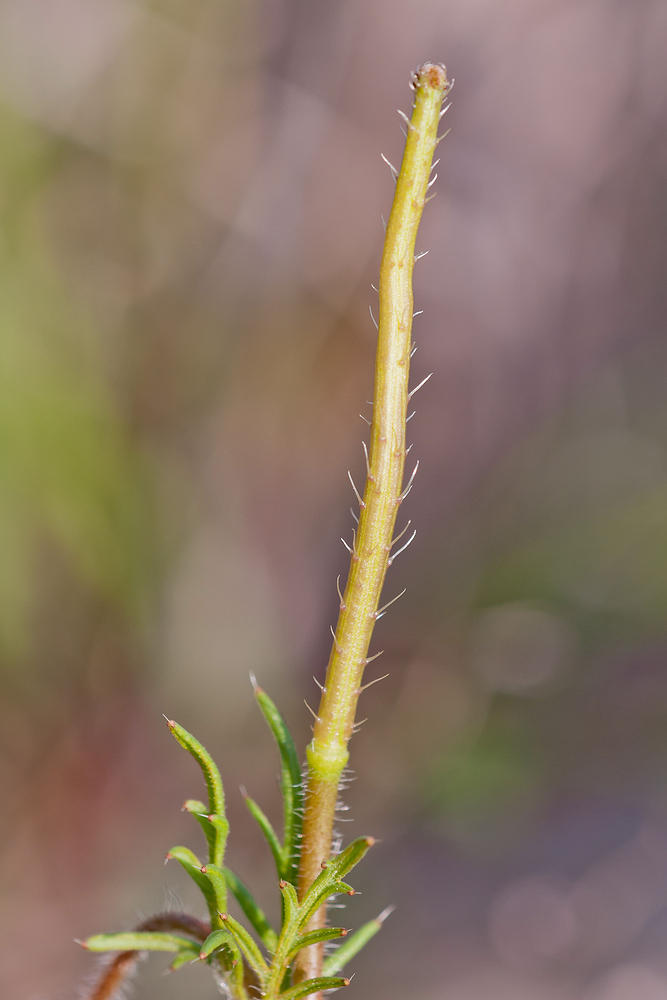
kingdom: Plantae
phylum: Tracheophyta
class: Magnoliopsida
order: Ranunculales
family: Papaveraceae
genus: Roemeria
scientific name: Roemeria hybrida
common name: Violet horned-poppy
